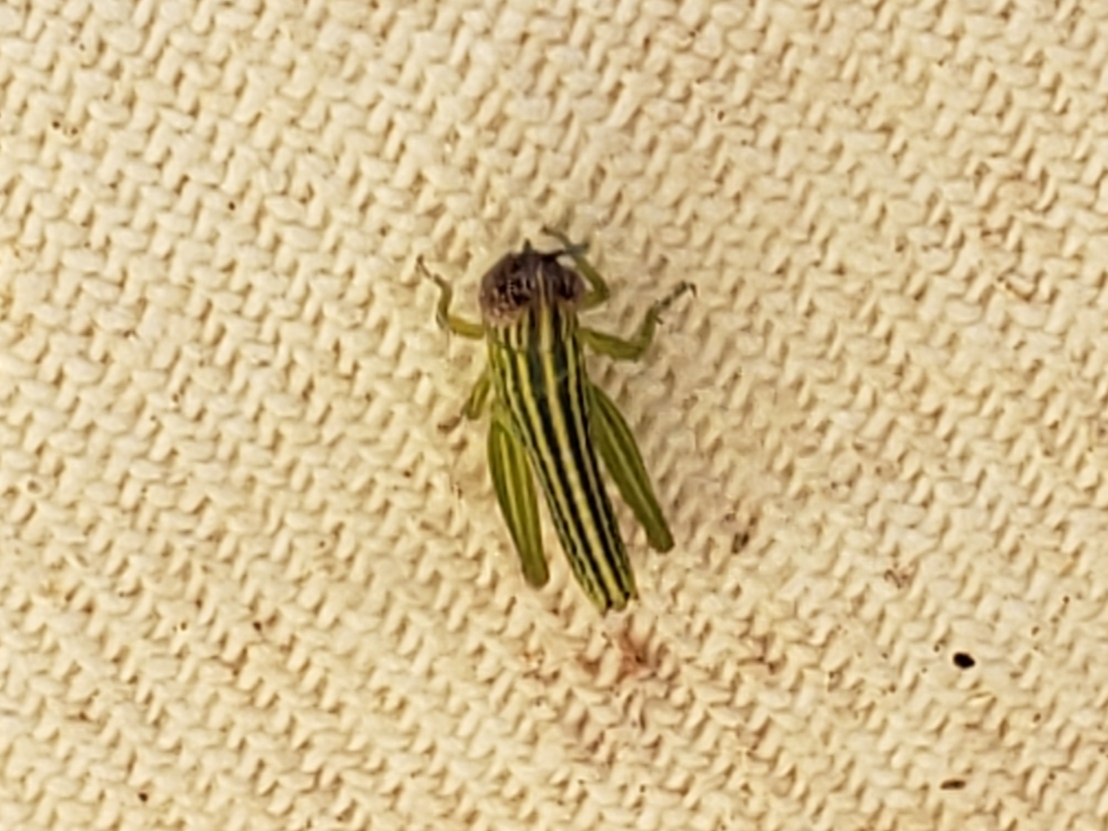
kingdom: Animalia
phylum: Arthropoda
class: Insecta
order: Orthoptera
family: Acrididae
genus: Amblytropidia
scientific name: Amblytropidia mysteca
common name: Brown winter grasshopper
